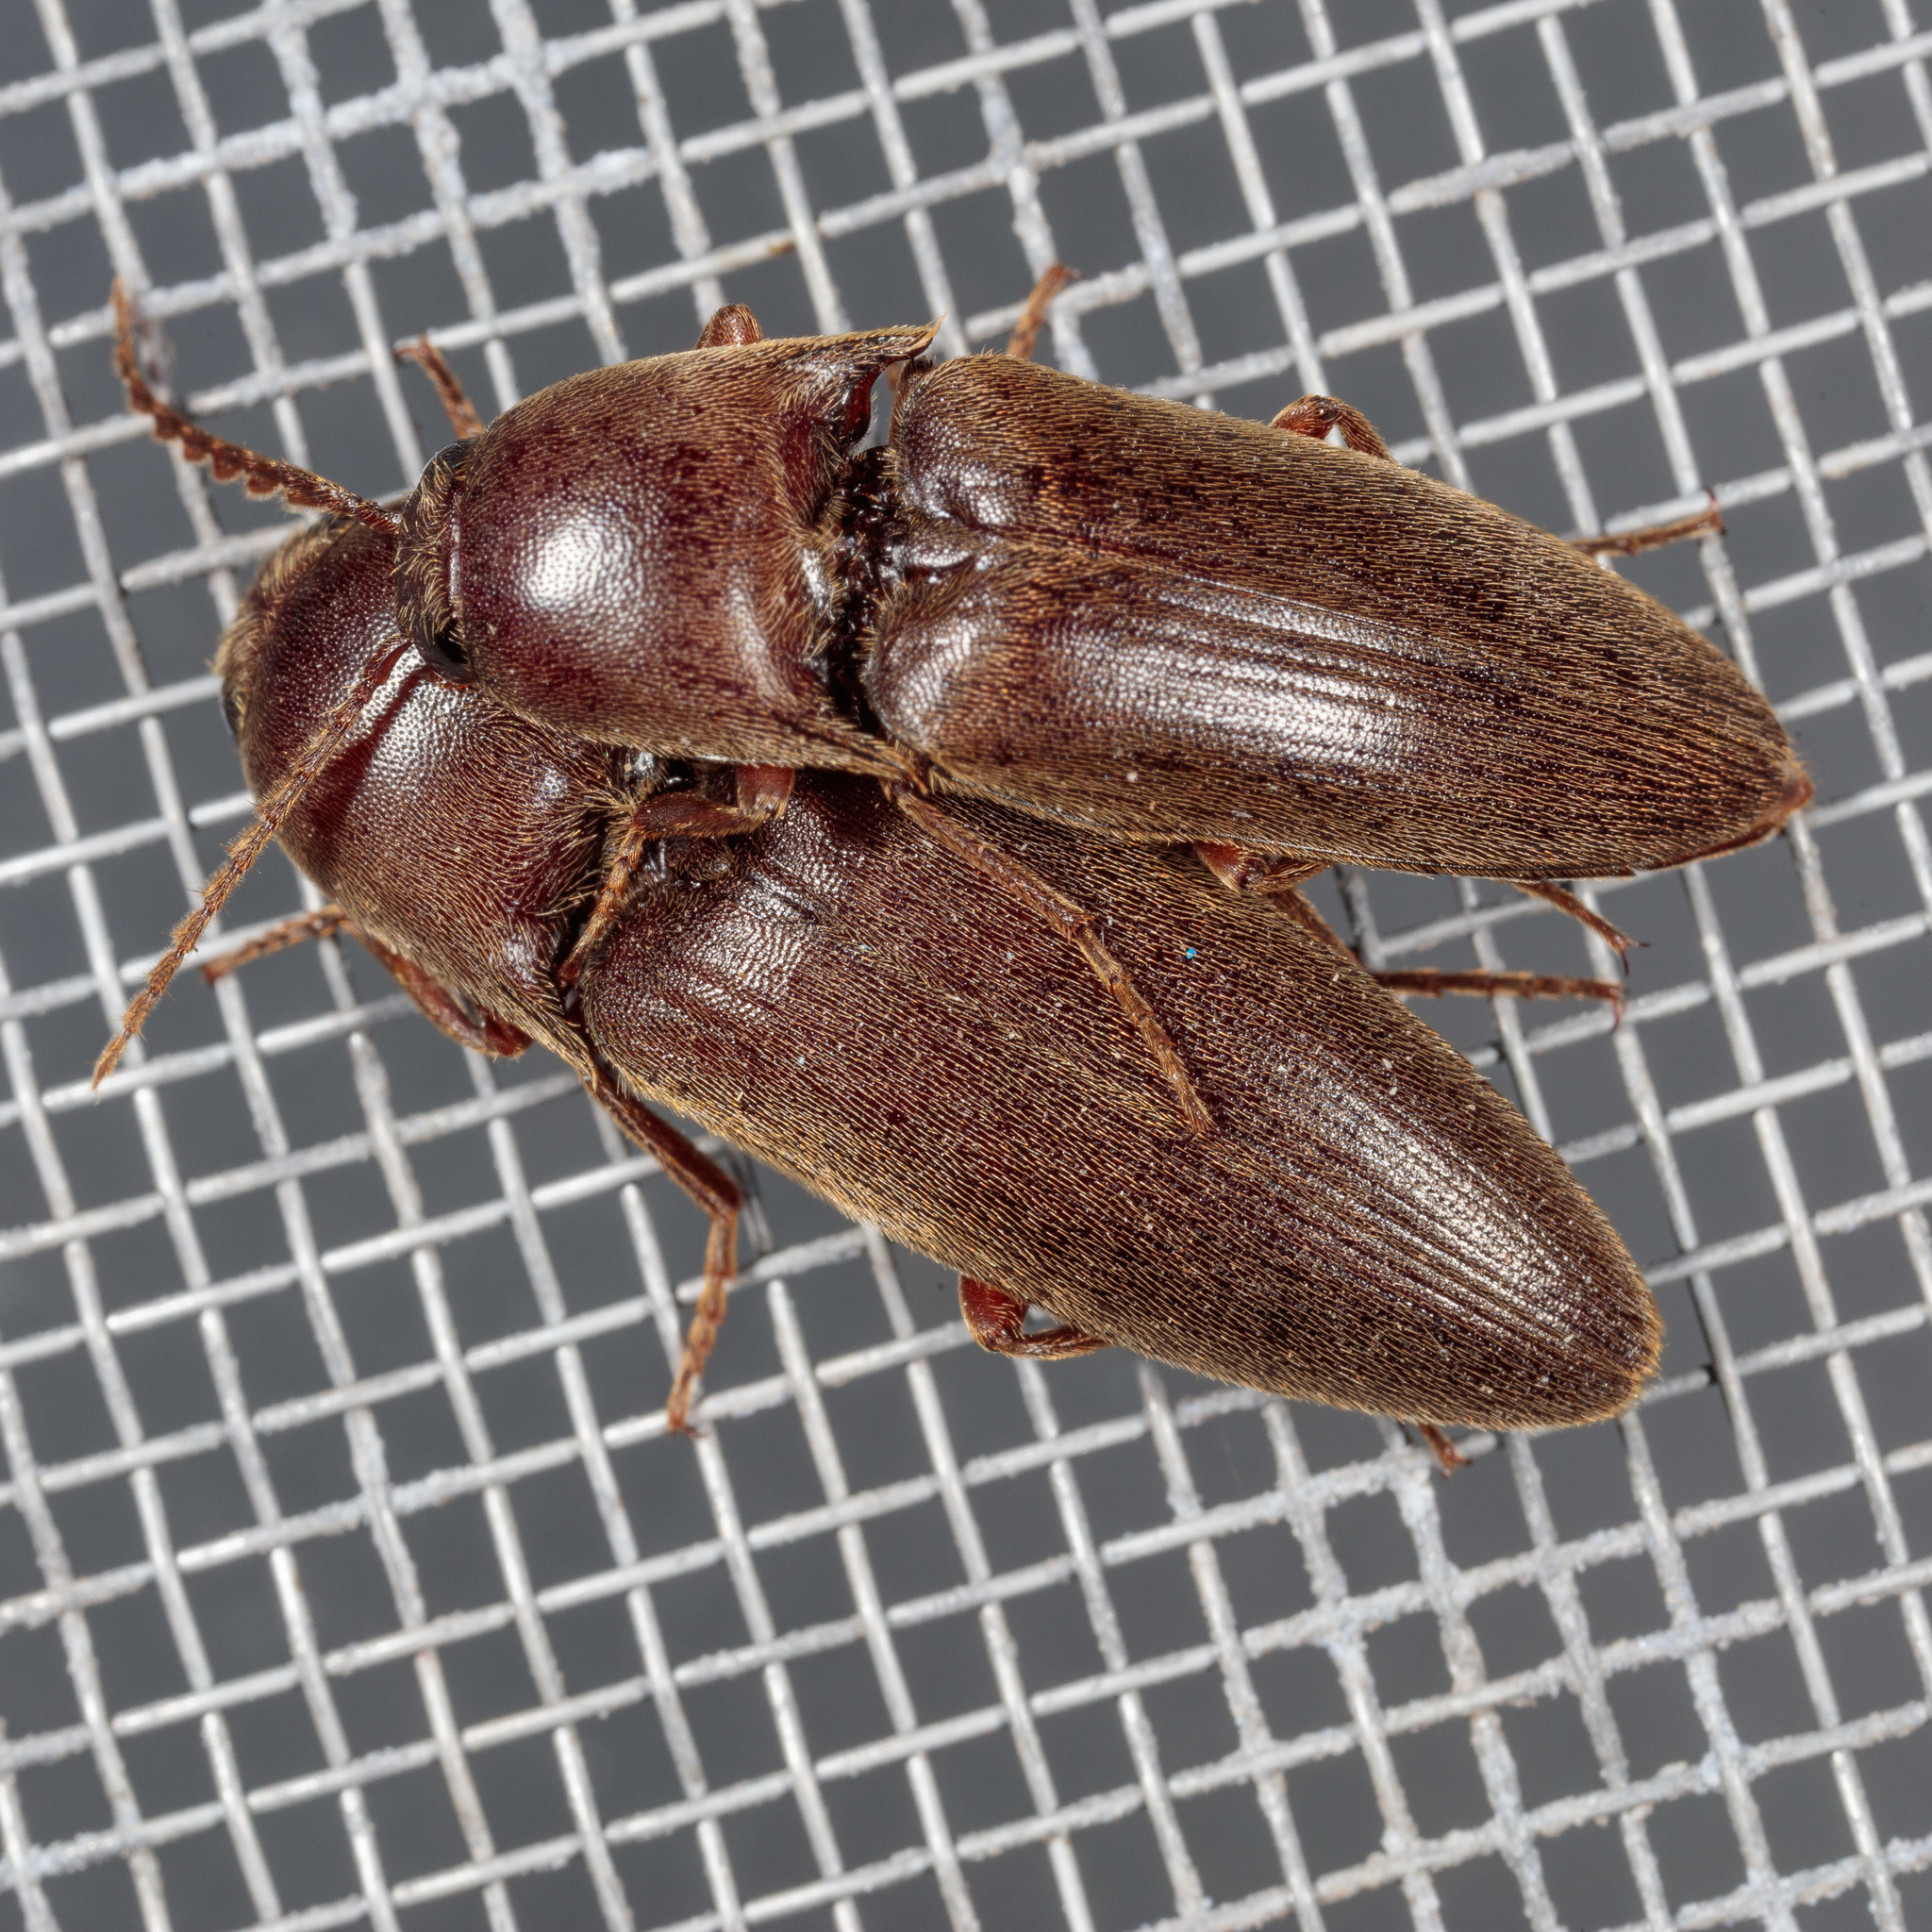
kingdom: Animalia
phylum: Arthropoda
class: Insecta
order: Coleoptera
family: Elateridae
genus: Diplostethus
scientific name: Diplostethus
